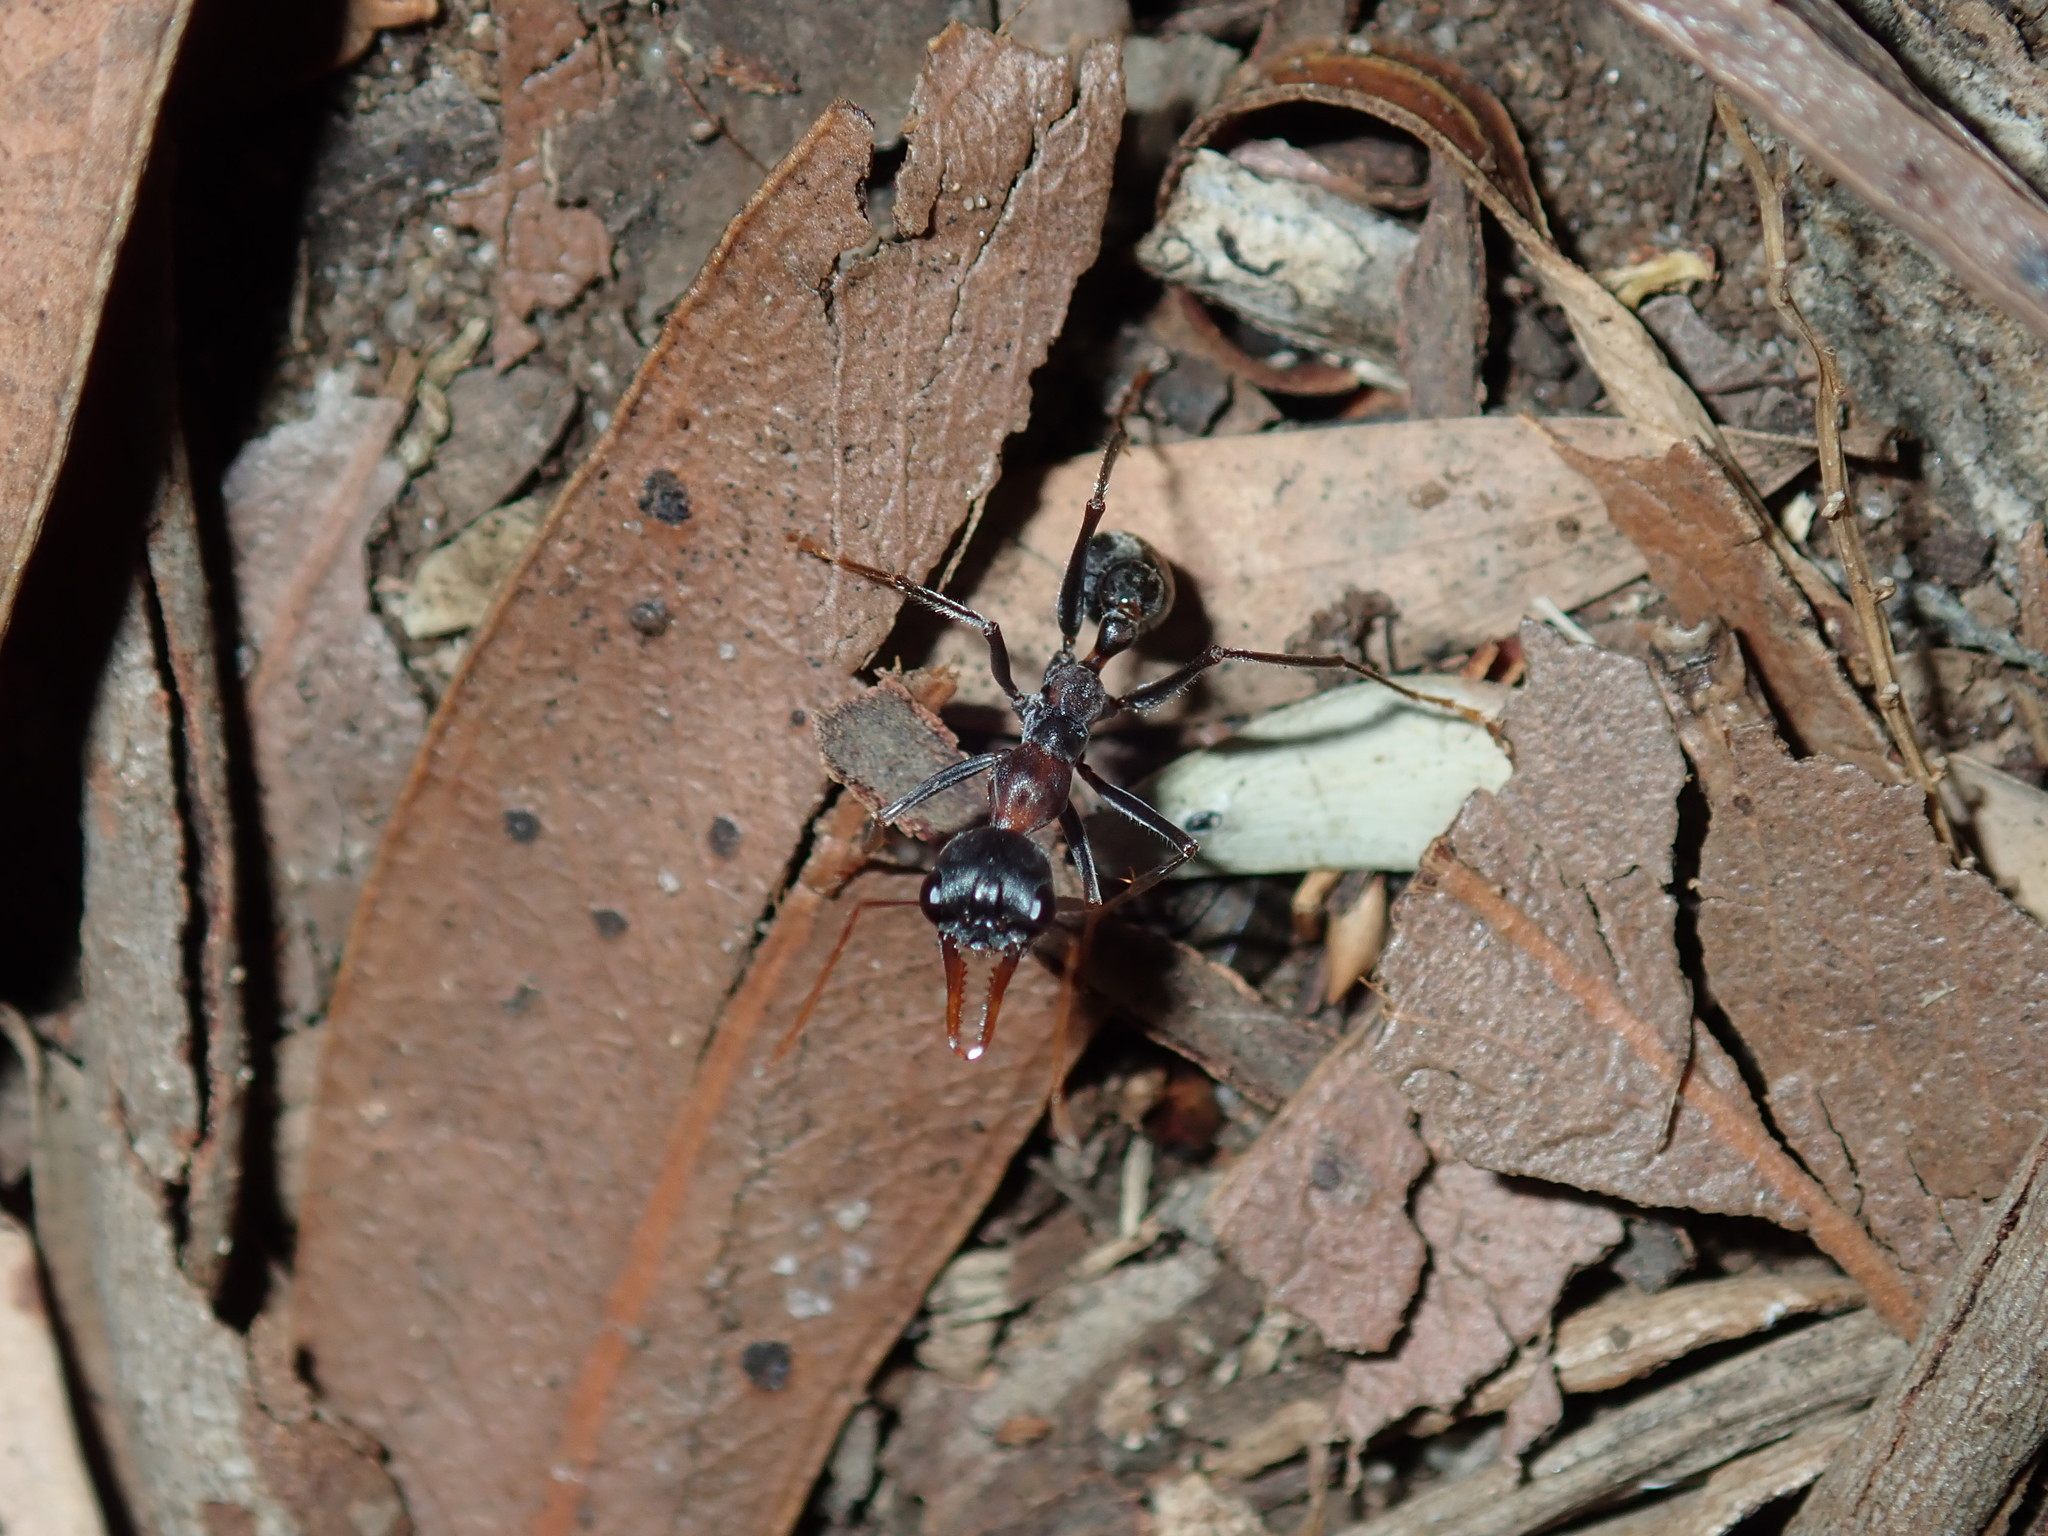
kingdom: Animalia
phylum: Arthropoda
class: Insecta
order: Hymenoptera
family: Formicidae
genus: Myrmecia
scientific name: Myrmecia nigrocincta
